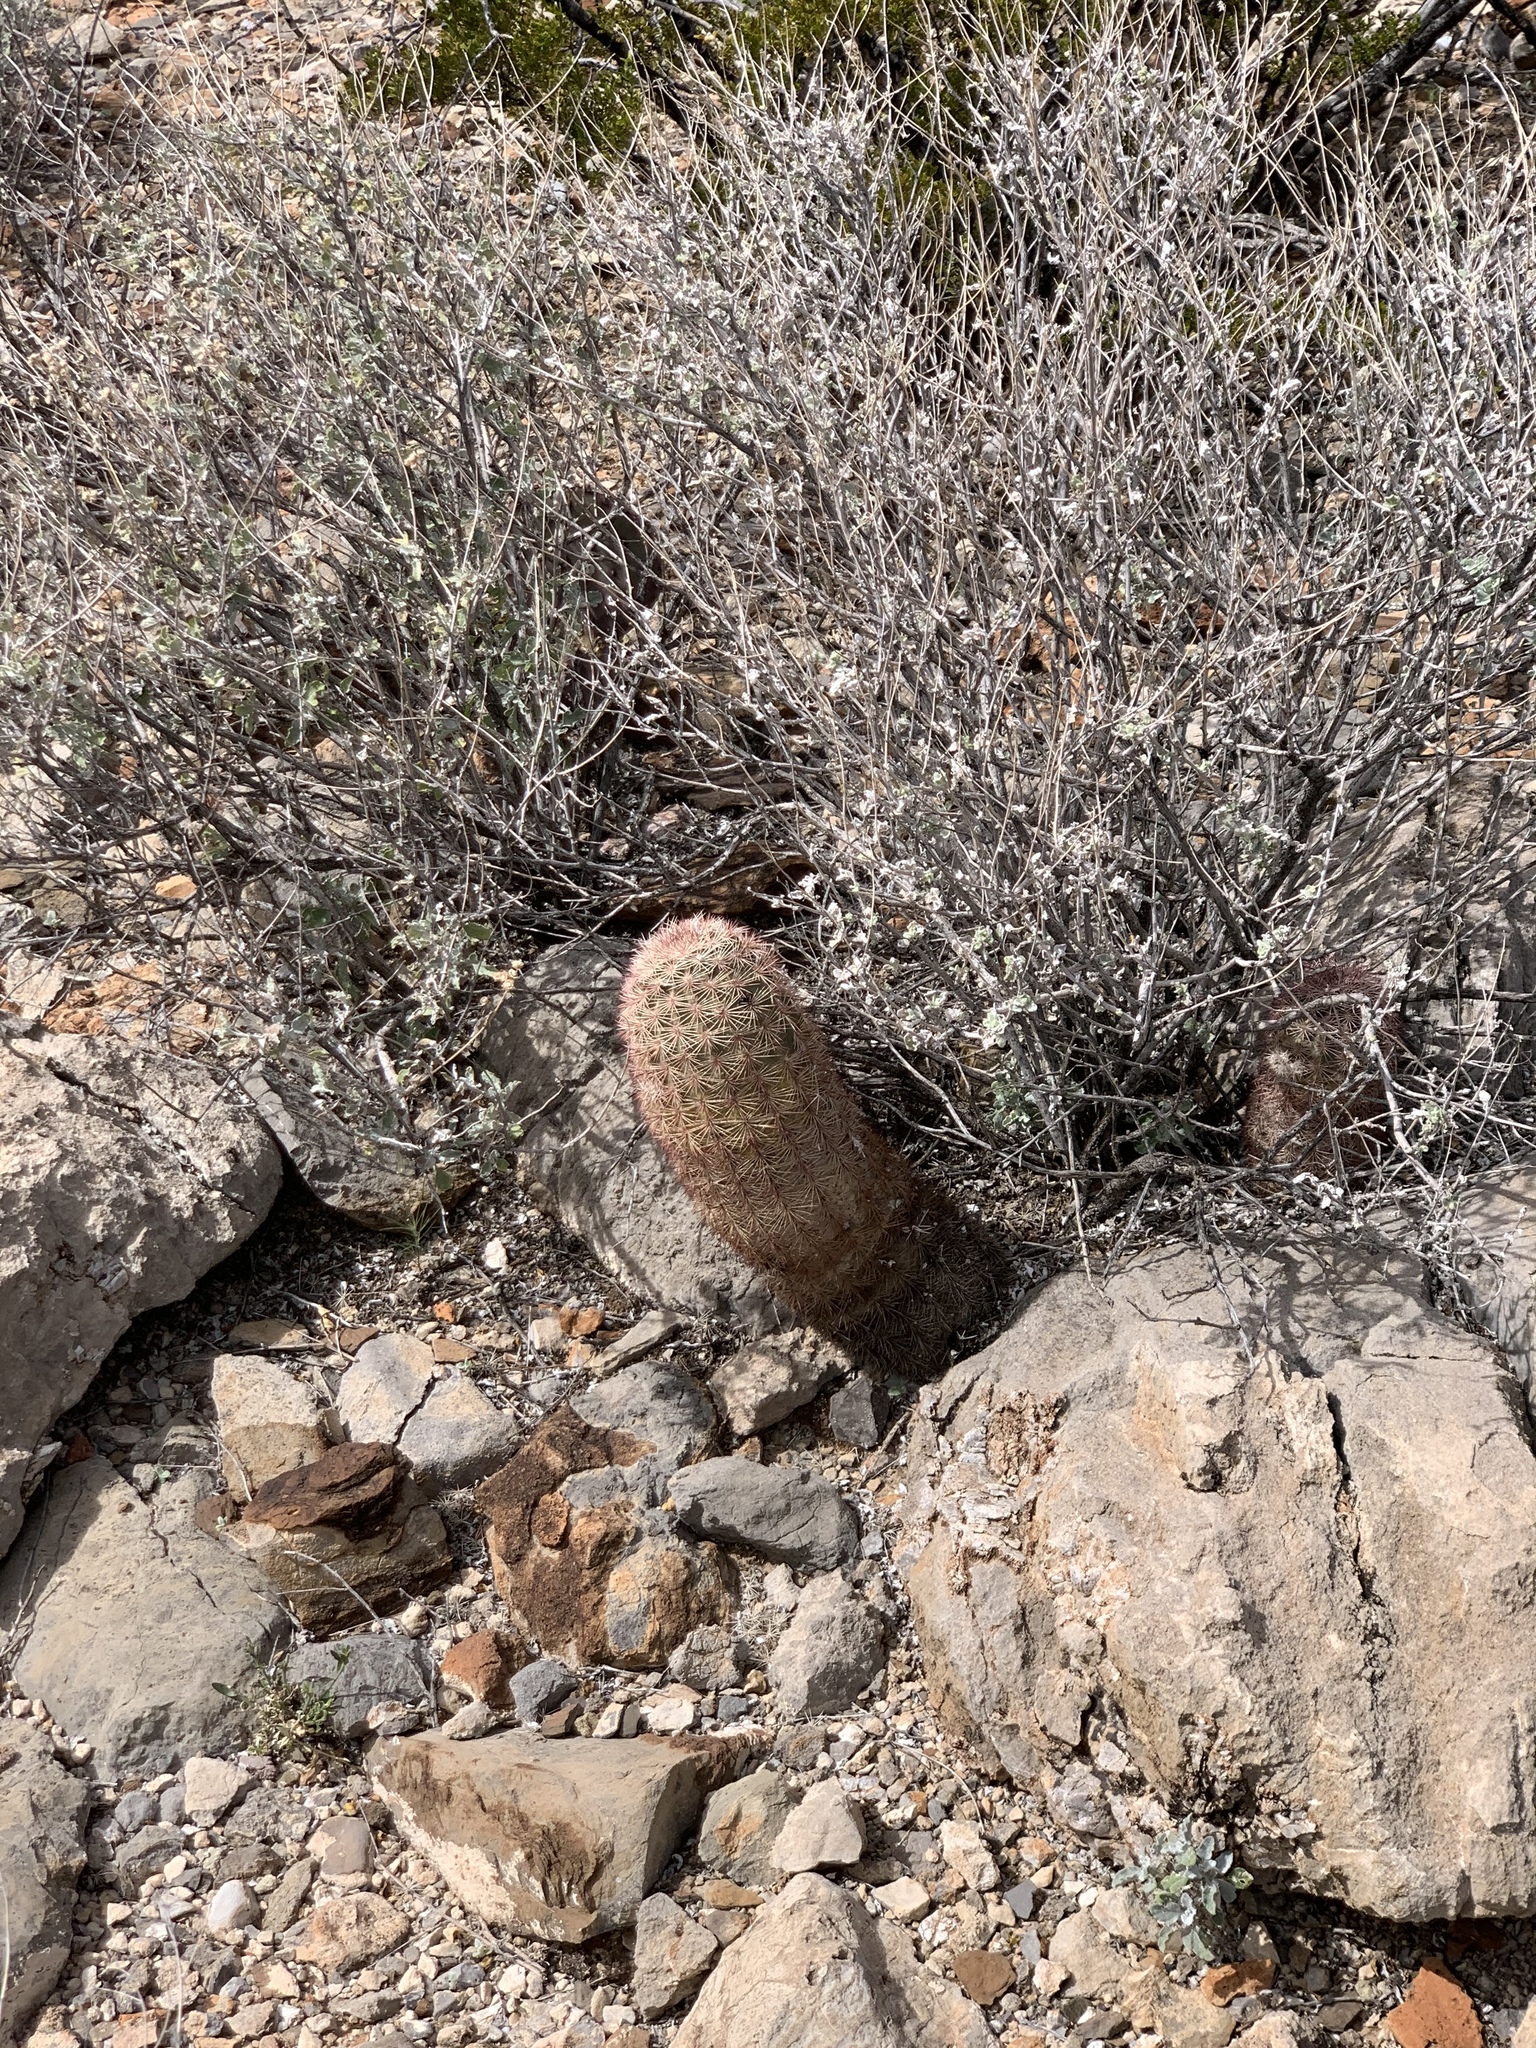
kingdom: Plantae
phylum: Tracheophyta
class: Magnoliopsida
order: Caryophyllales
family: Cactaceae
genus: Echinocereus
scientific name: Echinocereus dasyacanthus
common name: Spiny hedgehog cactus
